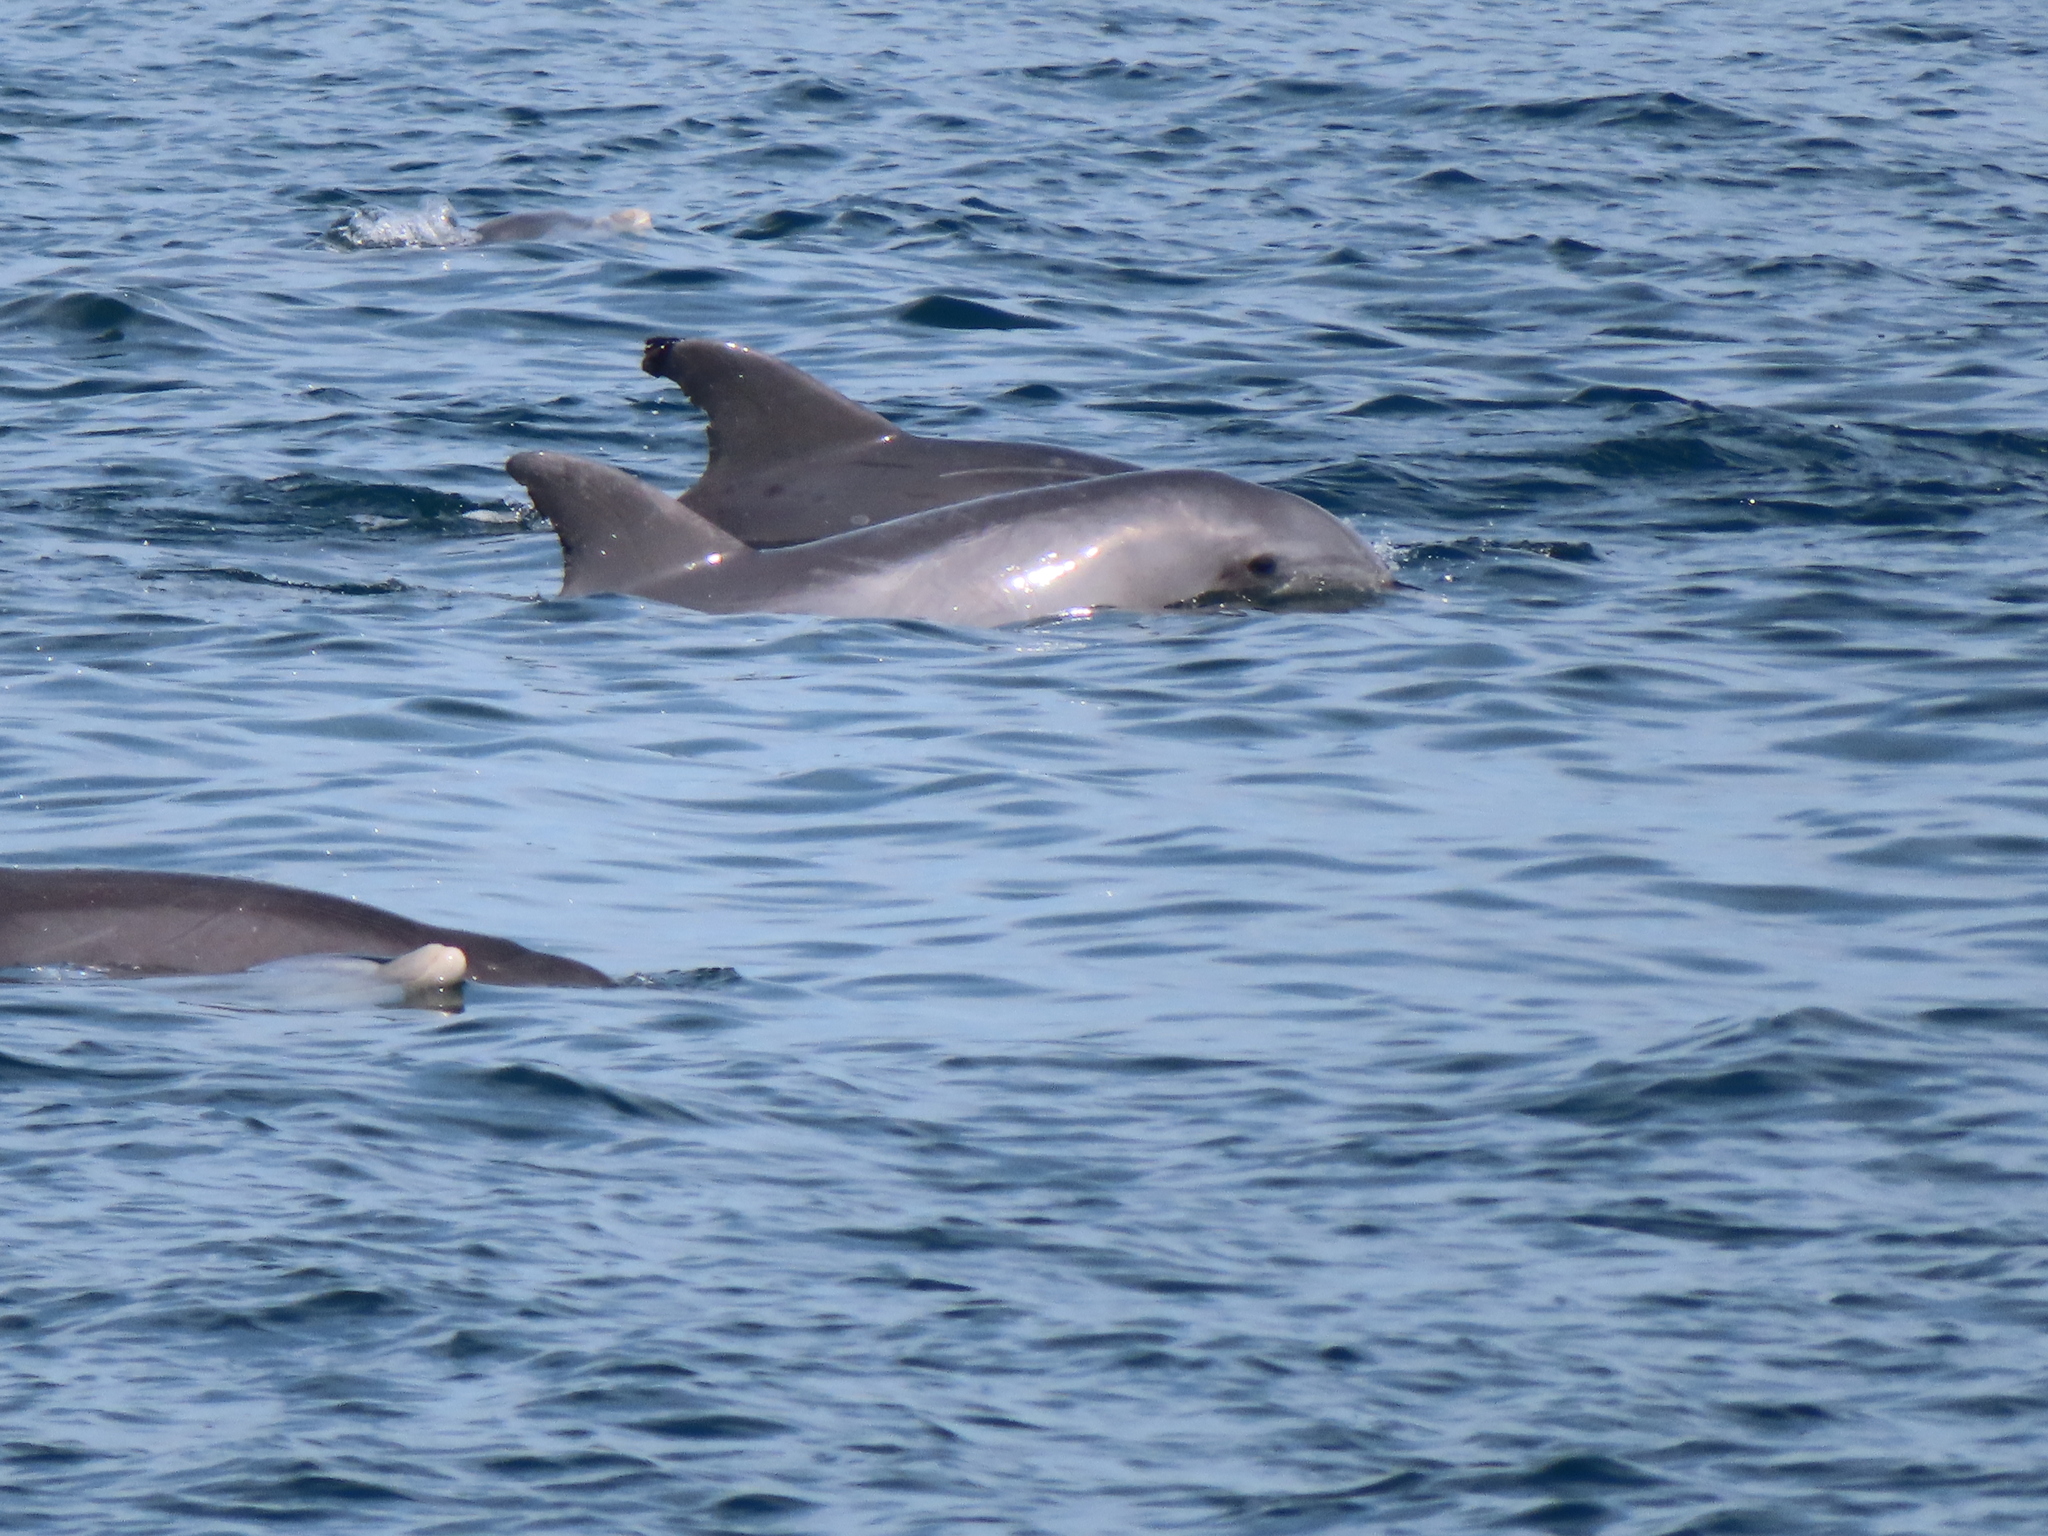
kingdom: Animalia
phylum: Chordata
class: Mammalia
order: Cetacea
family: Delphinidae
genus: Tursiops
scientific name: Tursiops truncatus
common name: Bottlenose dolphin
